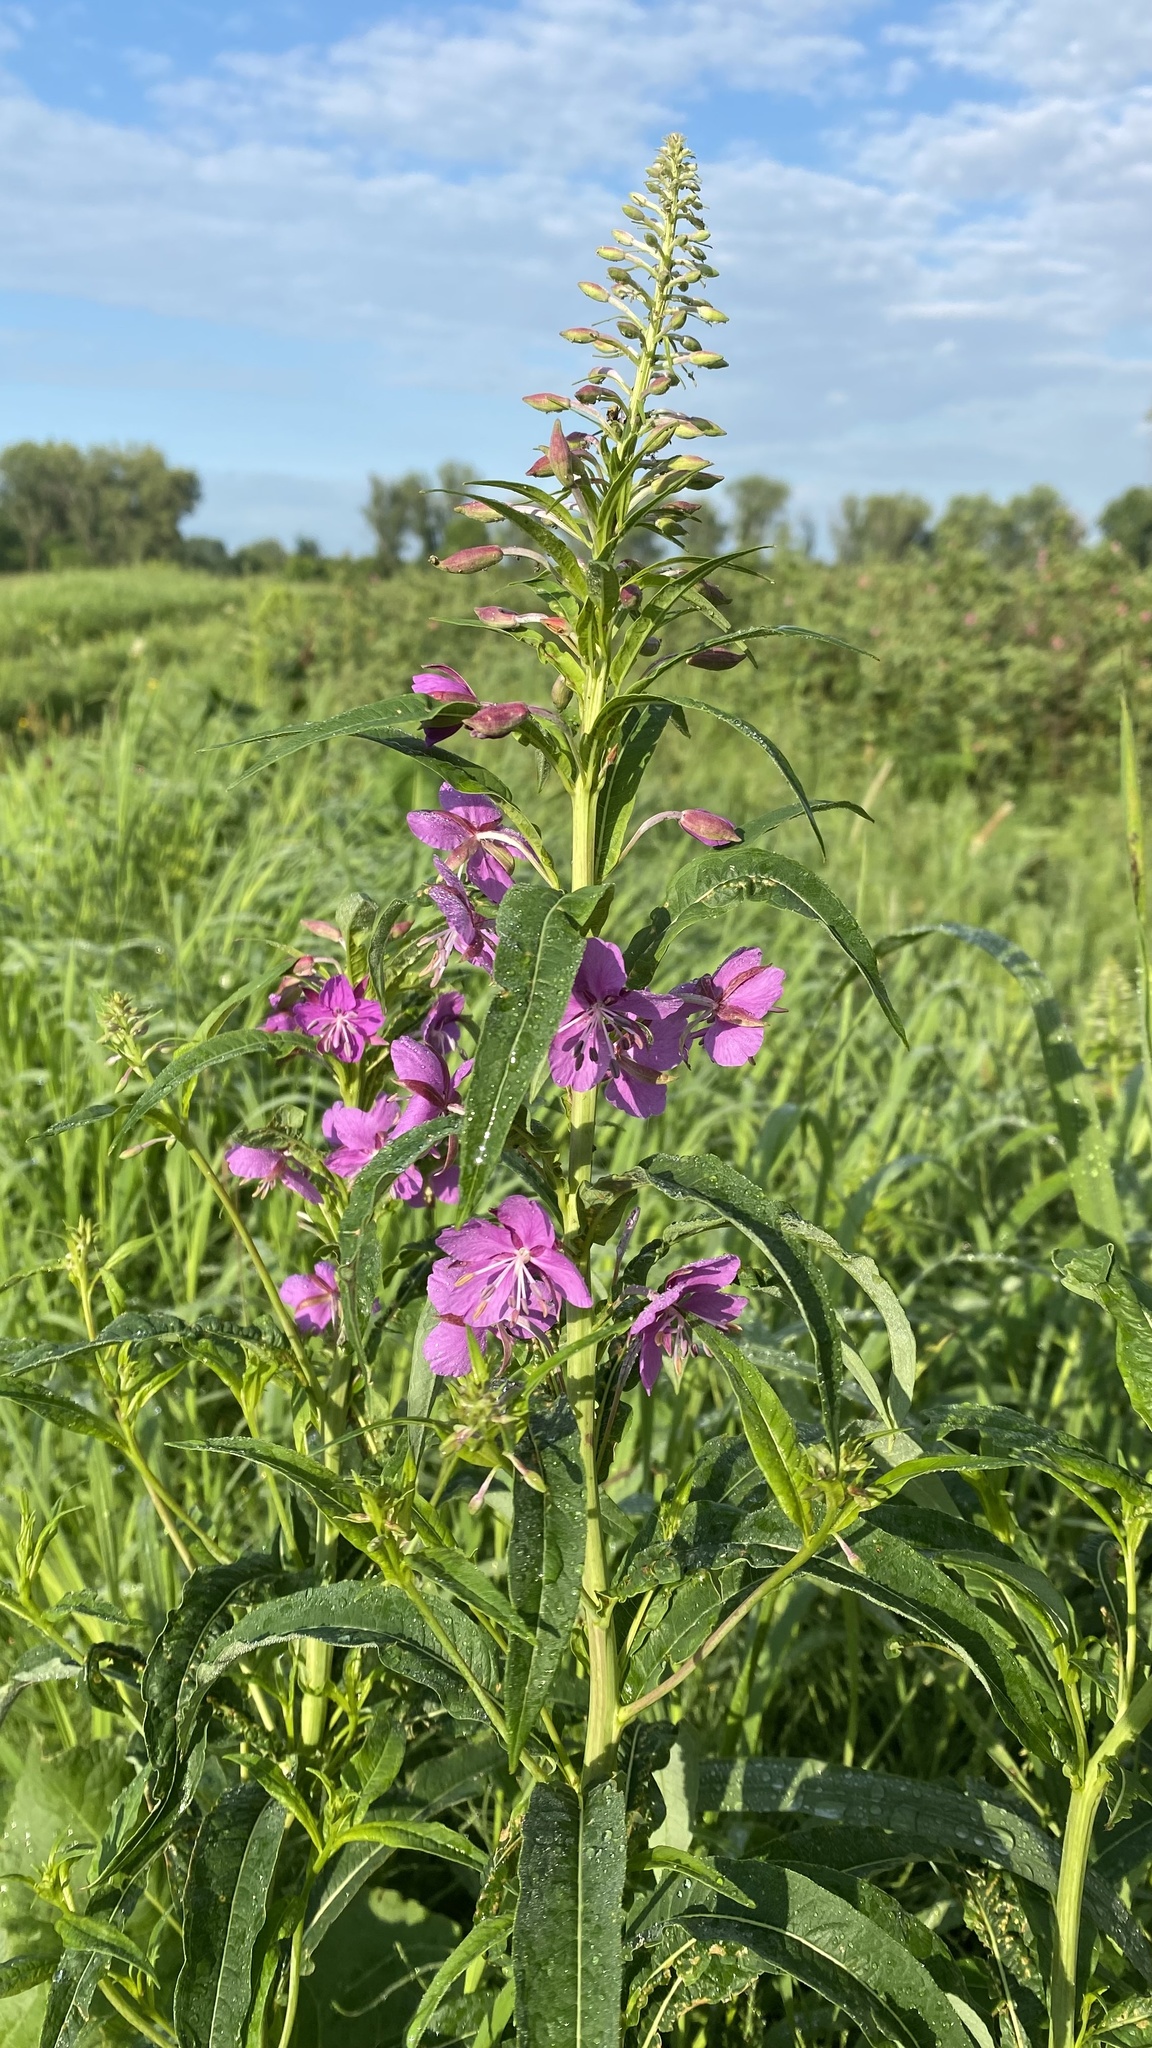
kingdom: Plantae
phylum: Tracheophyta
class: Magnoliopsida
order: Myrtales
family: Onagraceae
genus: Chamaenerion
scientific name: Chamaenerion angustifolium
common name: Fireweed
